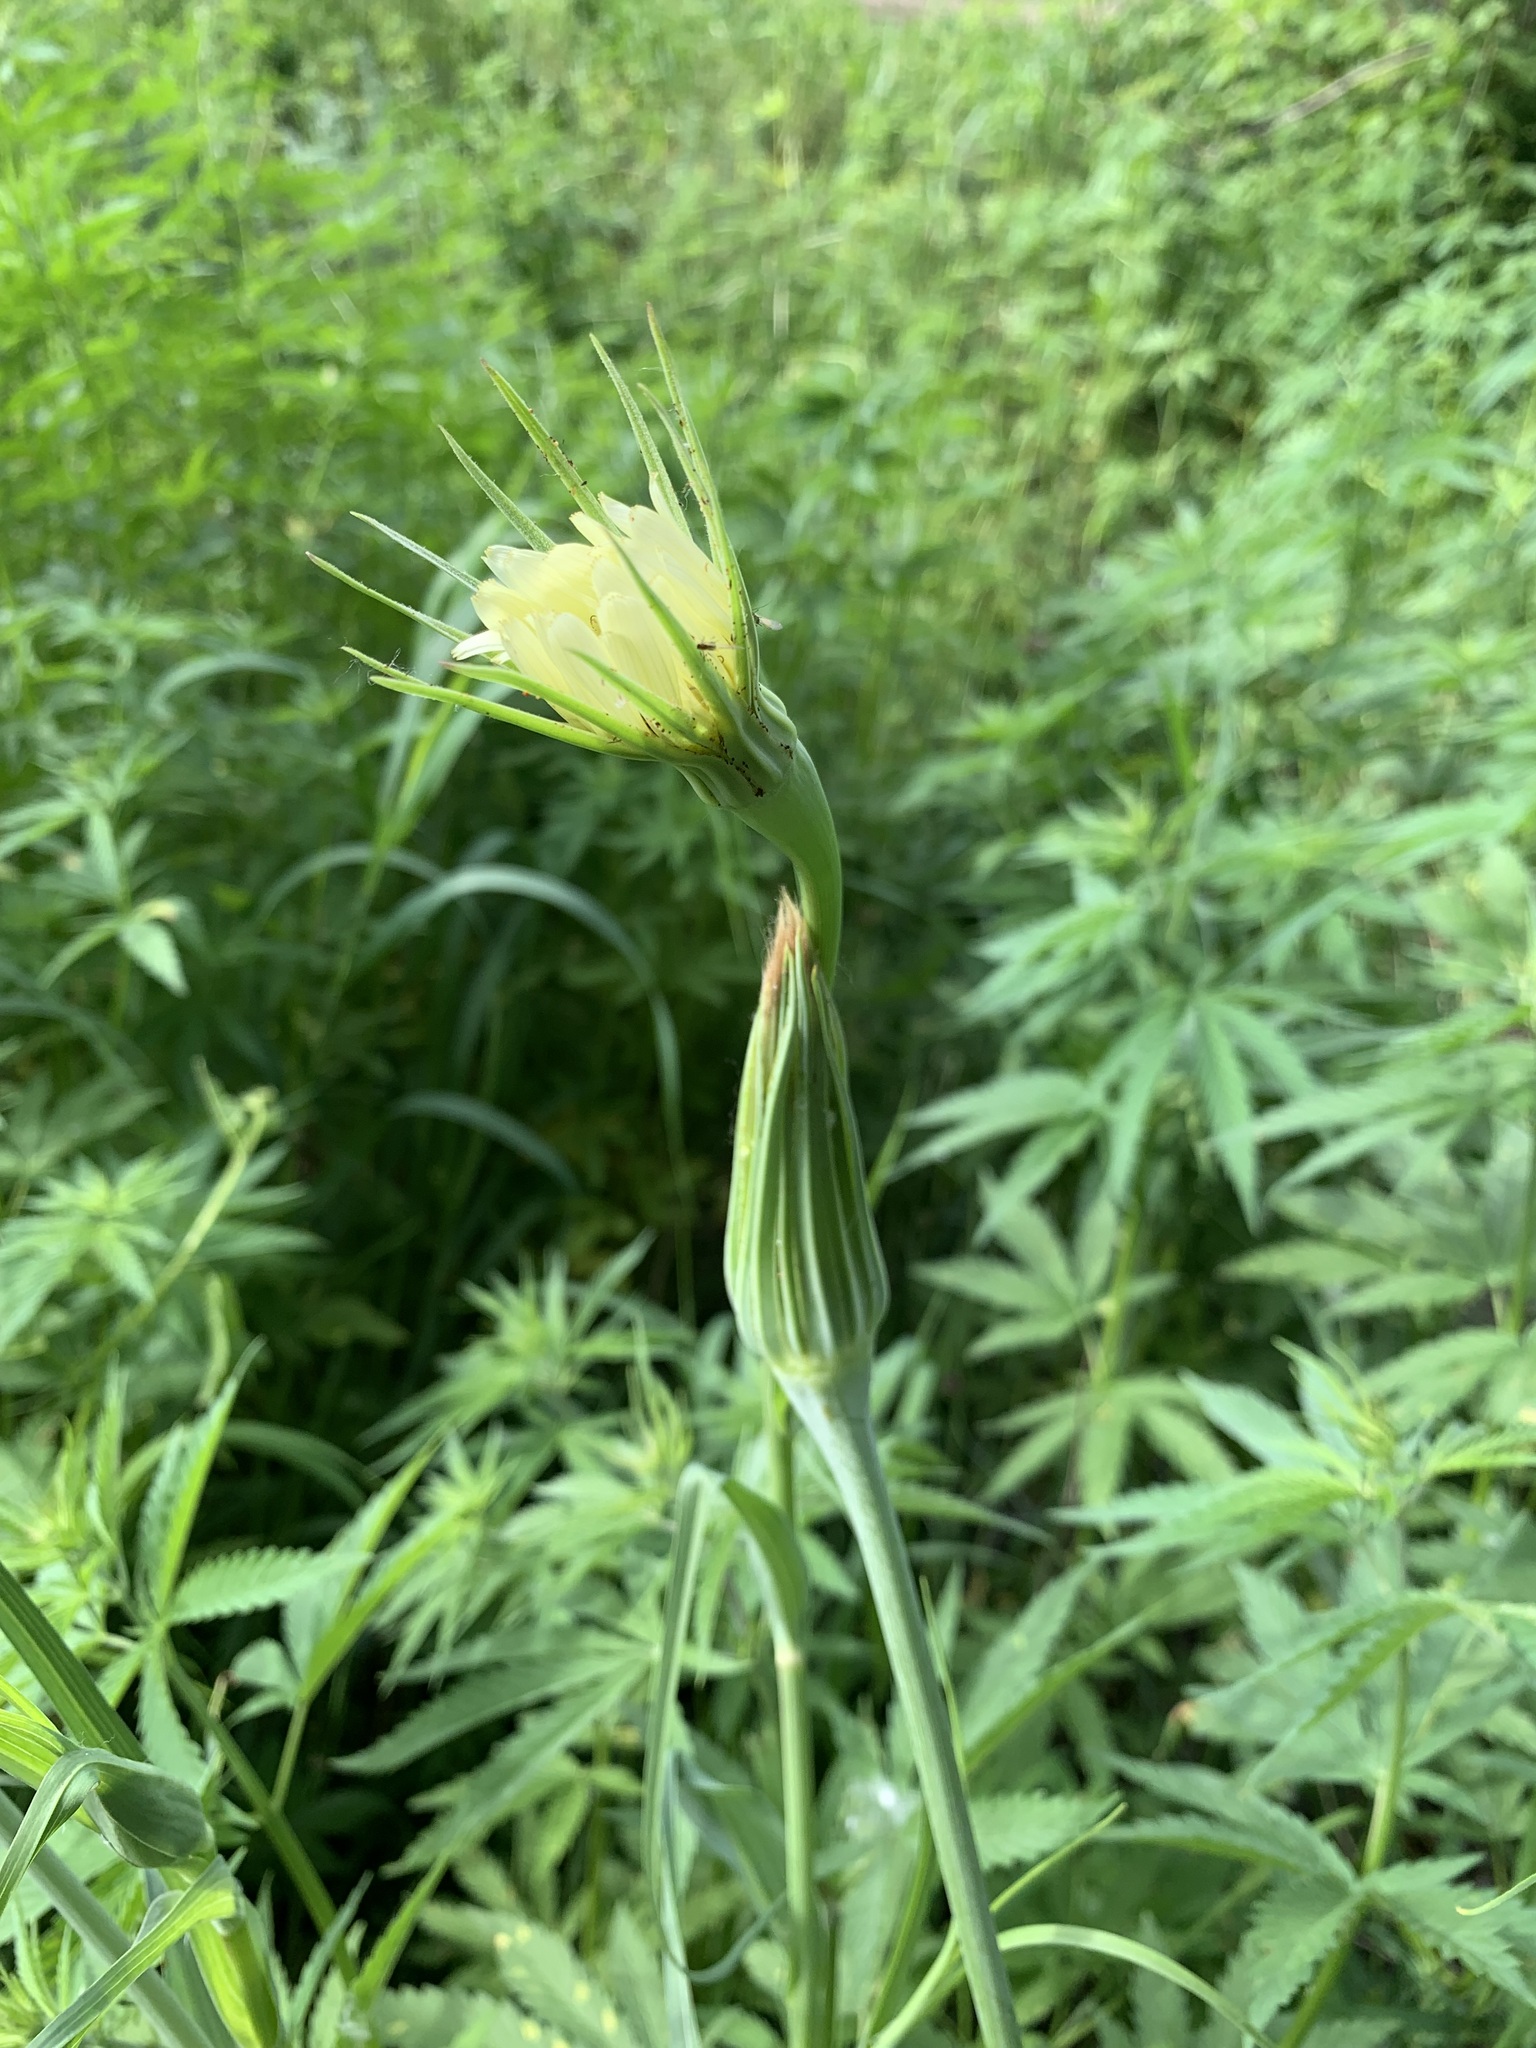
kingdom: Plantae
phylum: Tracheophyta
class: Magnoliopsida
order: Asterales
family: Asteraceae
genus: Tragopogon
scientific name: Tragopogon dubius
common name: Yellow salsify
